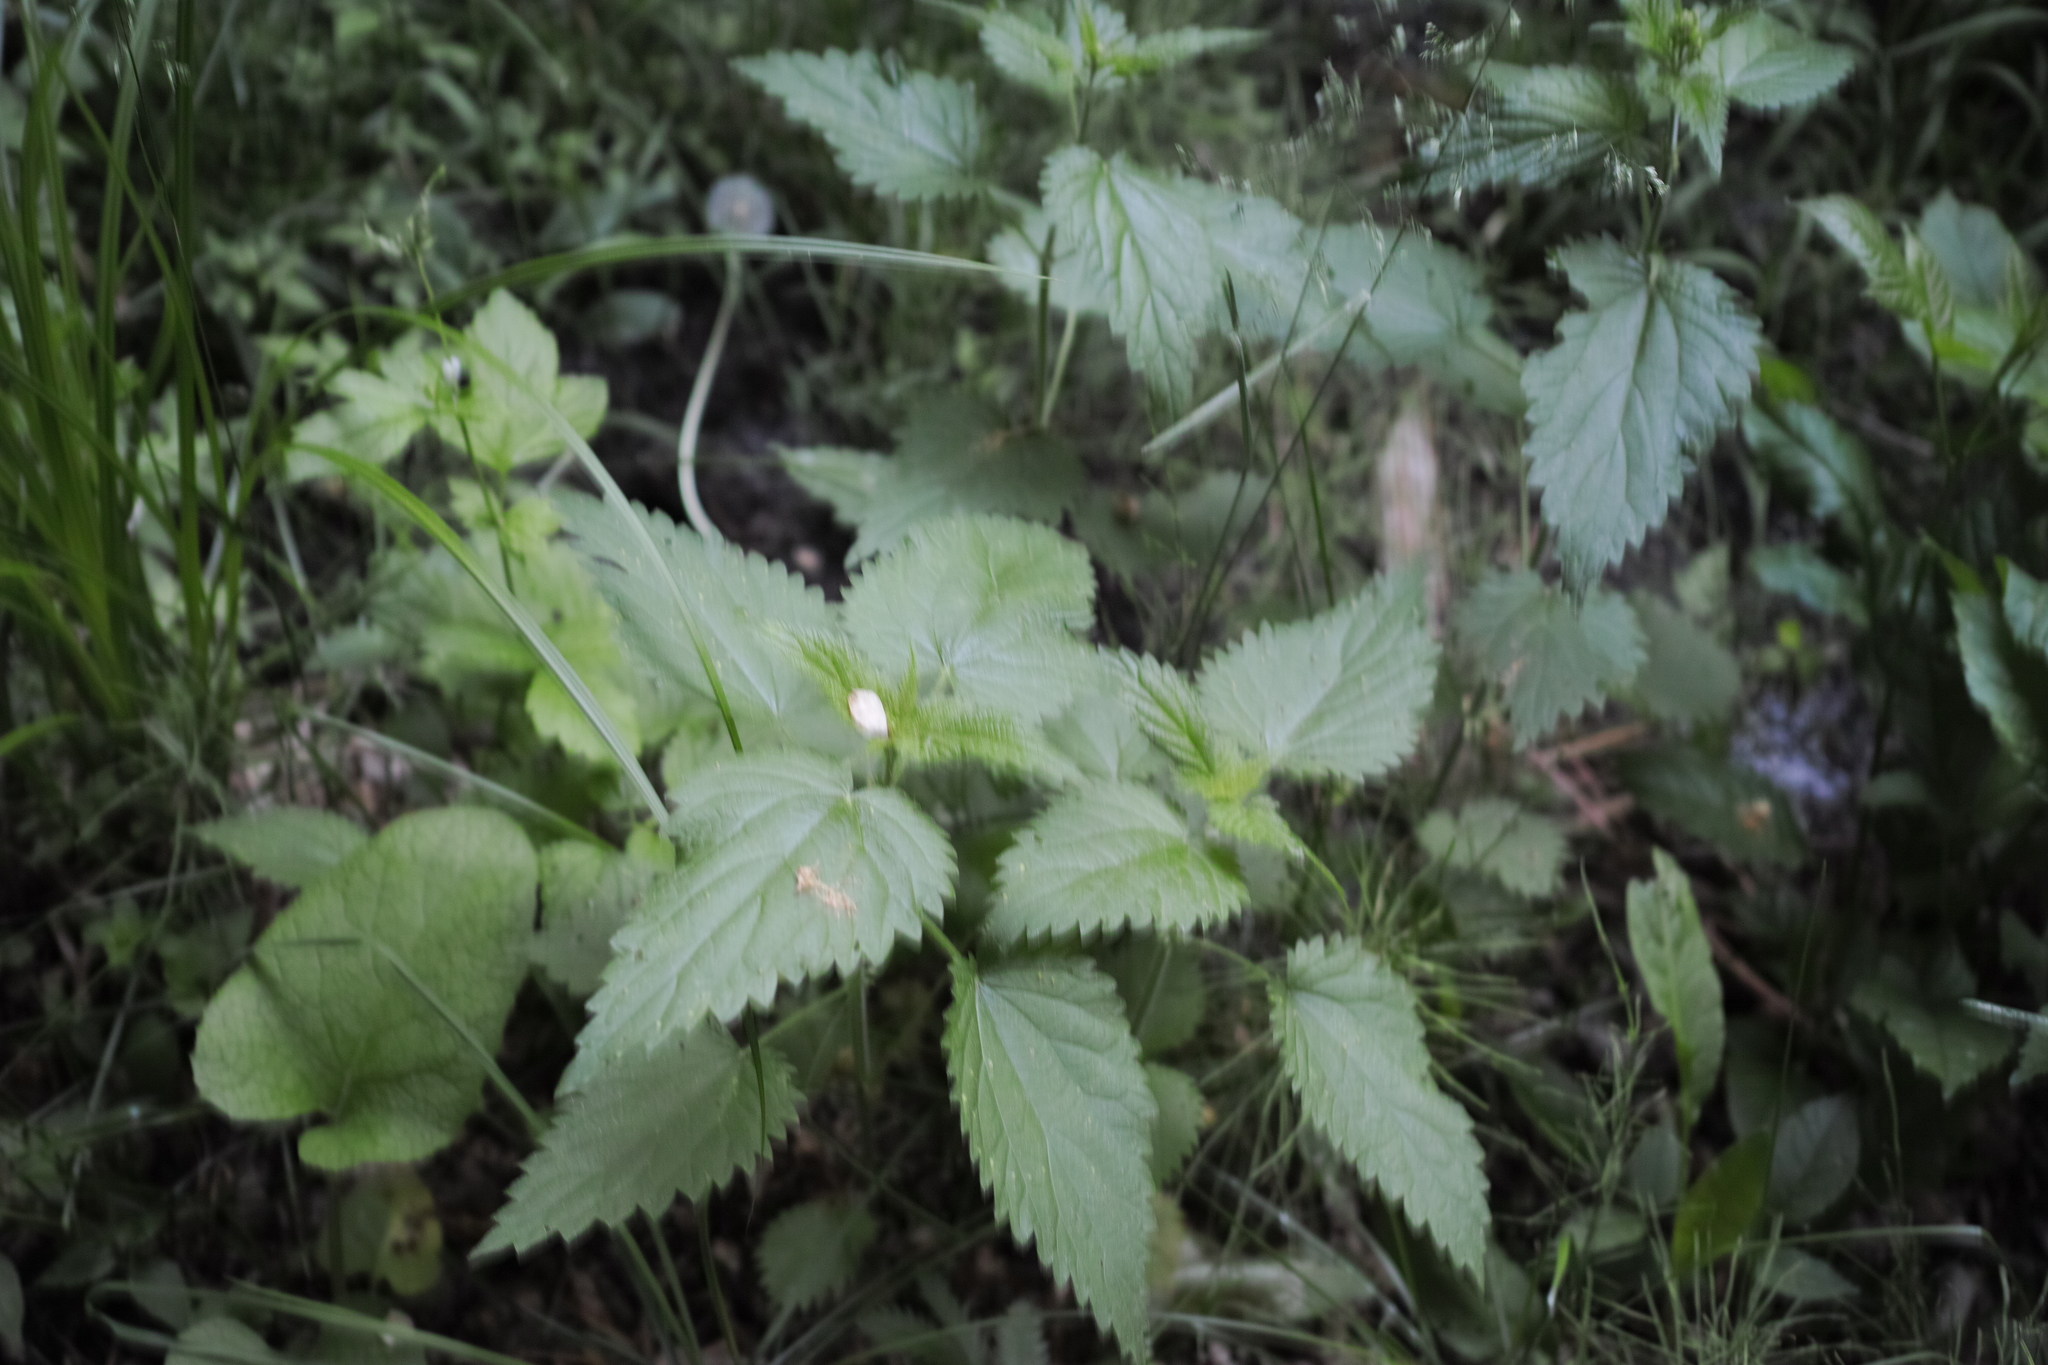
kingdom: Plantae
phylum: Tracheophyta
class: Magnoliopsida
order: Rosales
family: Urticaceae
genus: Urtica
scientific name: Urtica dioica
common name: Common nettle
